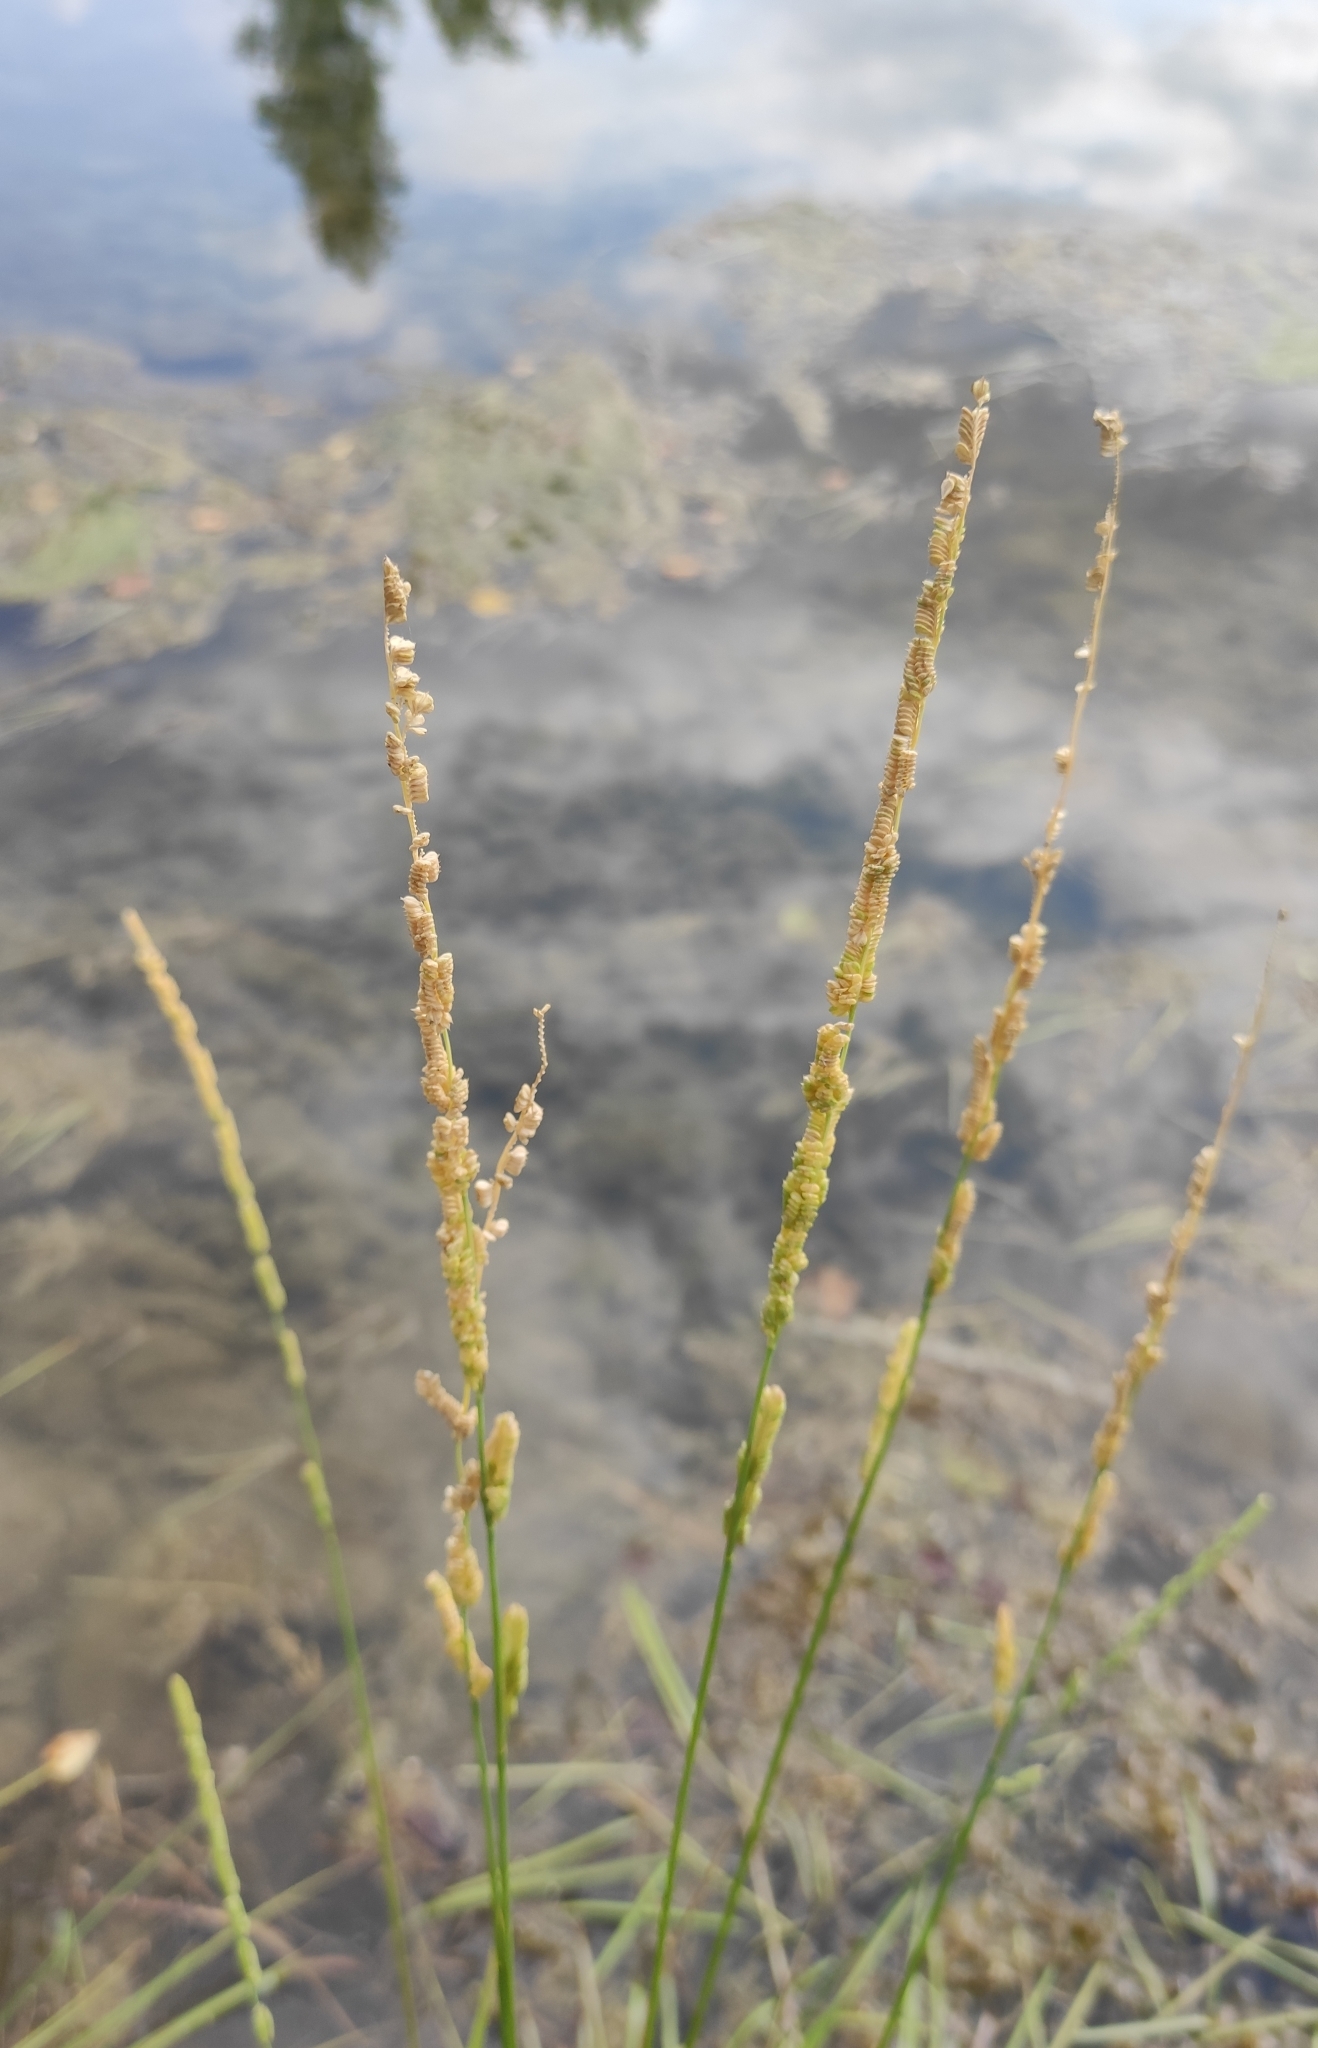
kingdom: Plantae
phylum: Tracheophyta
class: Liliopsida
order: Poales
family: Poaceae
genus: Beckmannia
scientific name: Beckmannia syzigachne
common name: American slough-grass
